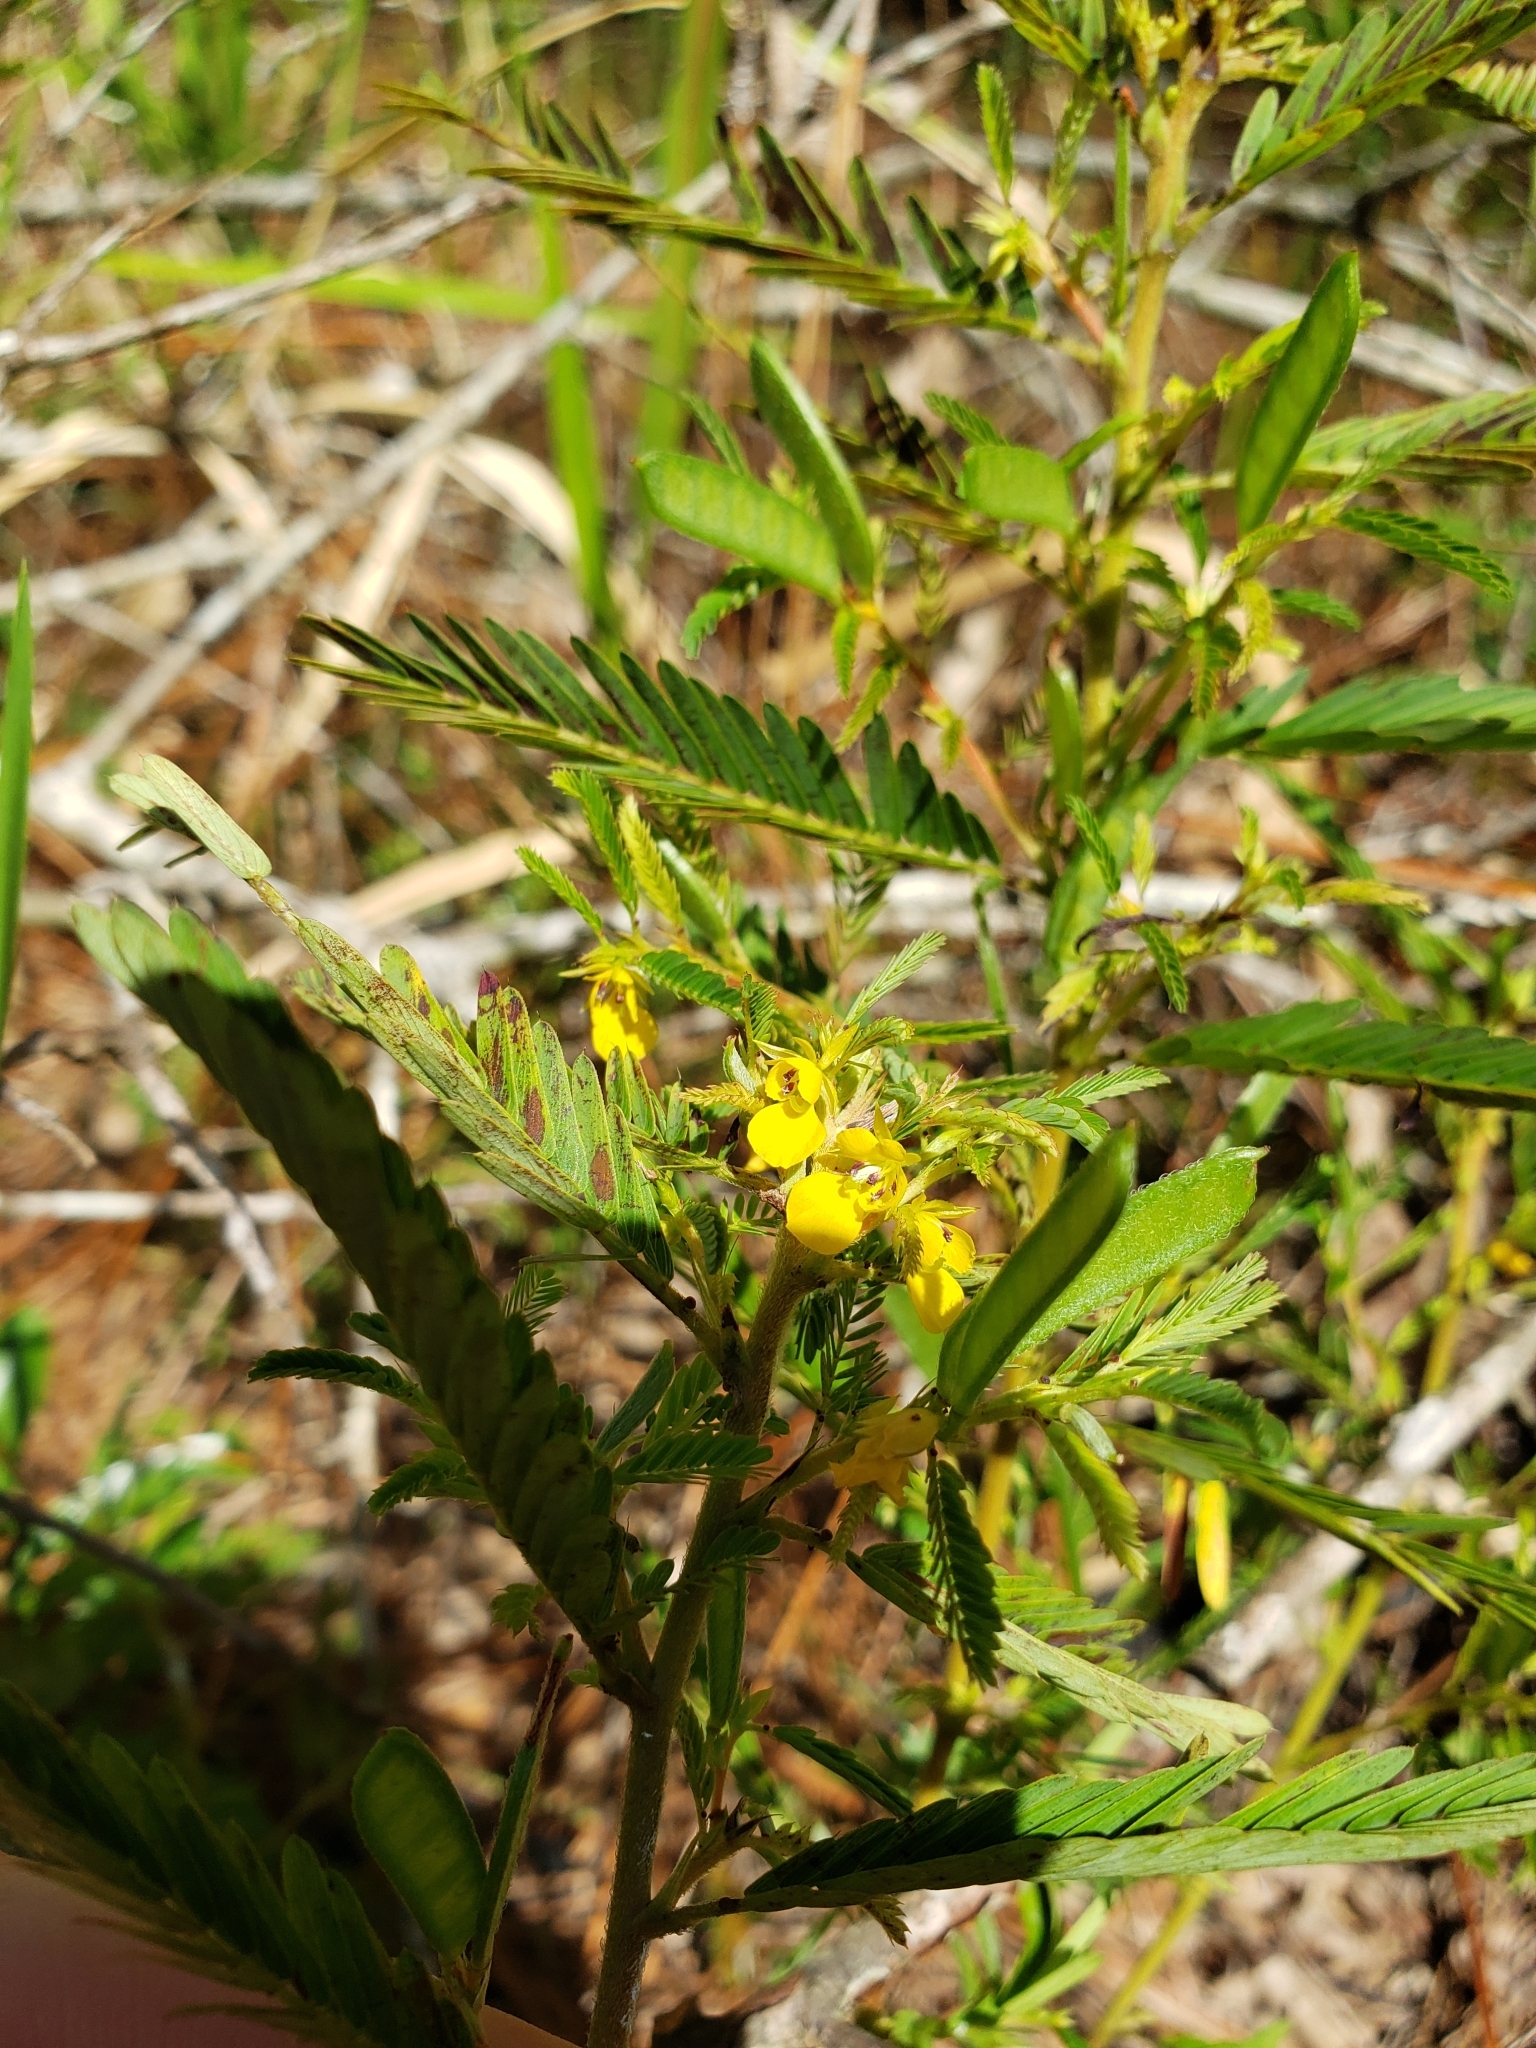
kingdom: Plantae
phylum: Tracheophyta
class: Magnoliopsida
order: Fabales
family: Fabaceae
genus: Chamaecrista
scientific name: Chamaecrista nictitans
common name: Sensitive cassia
